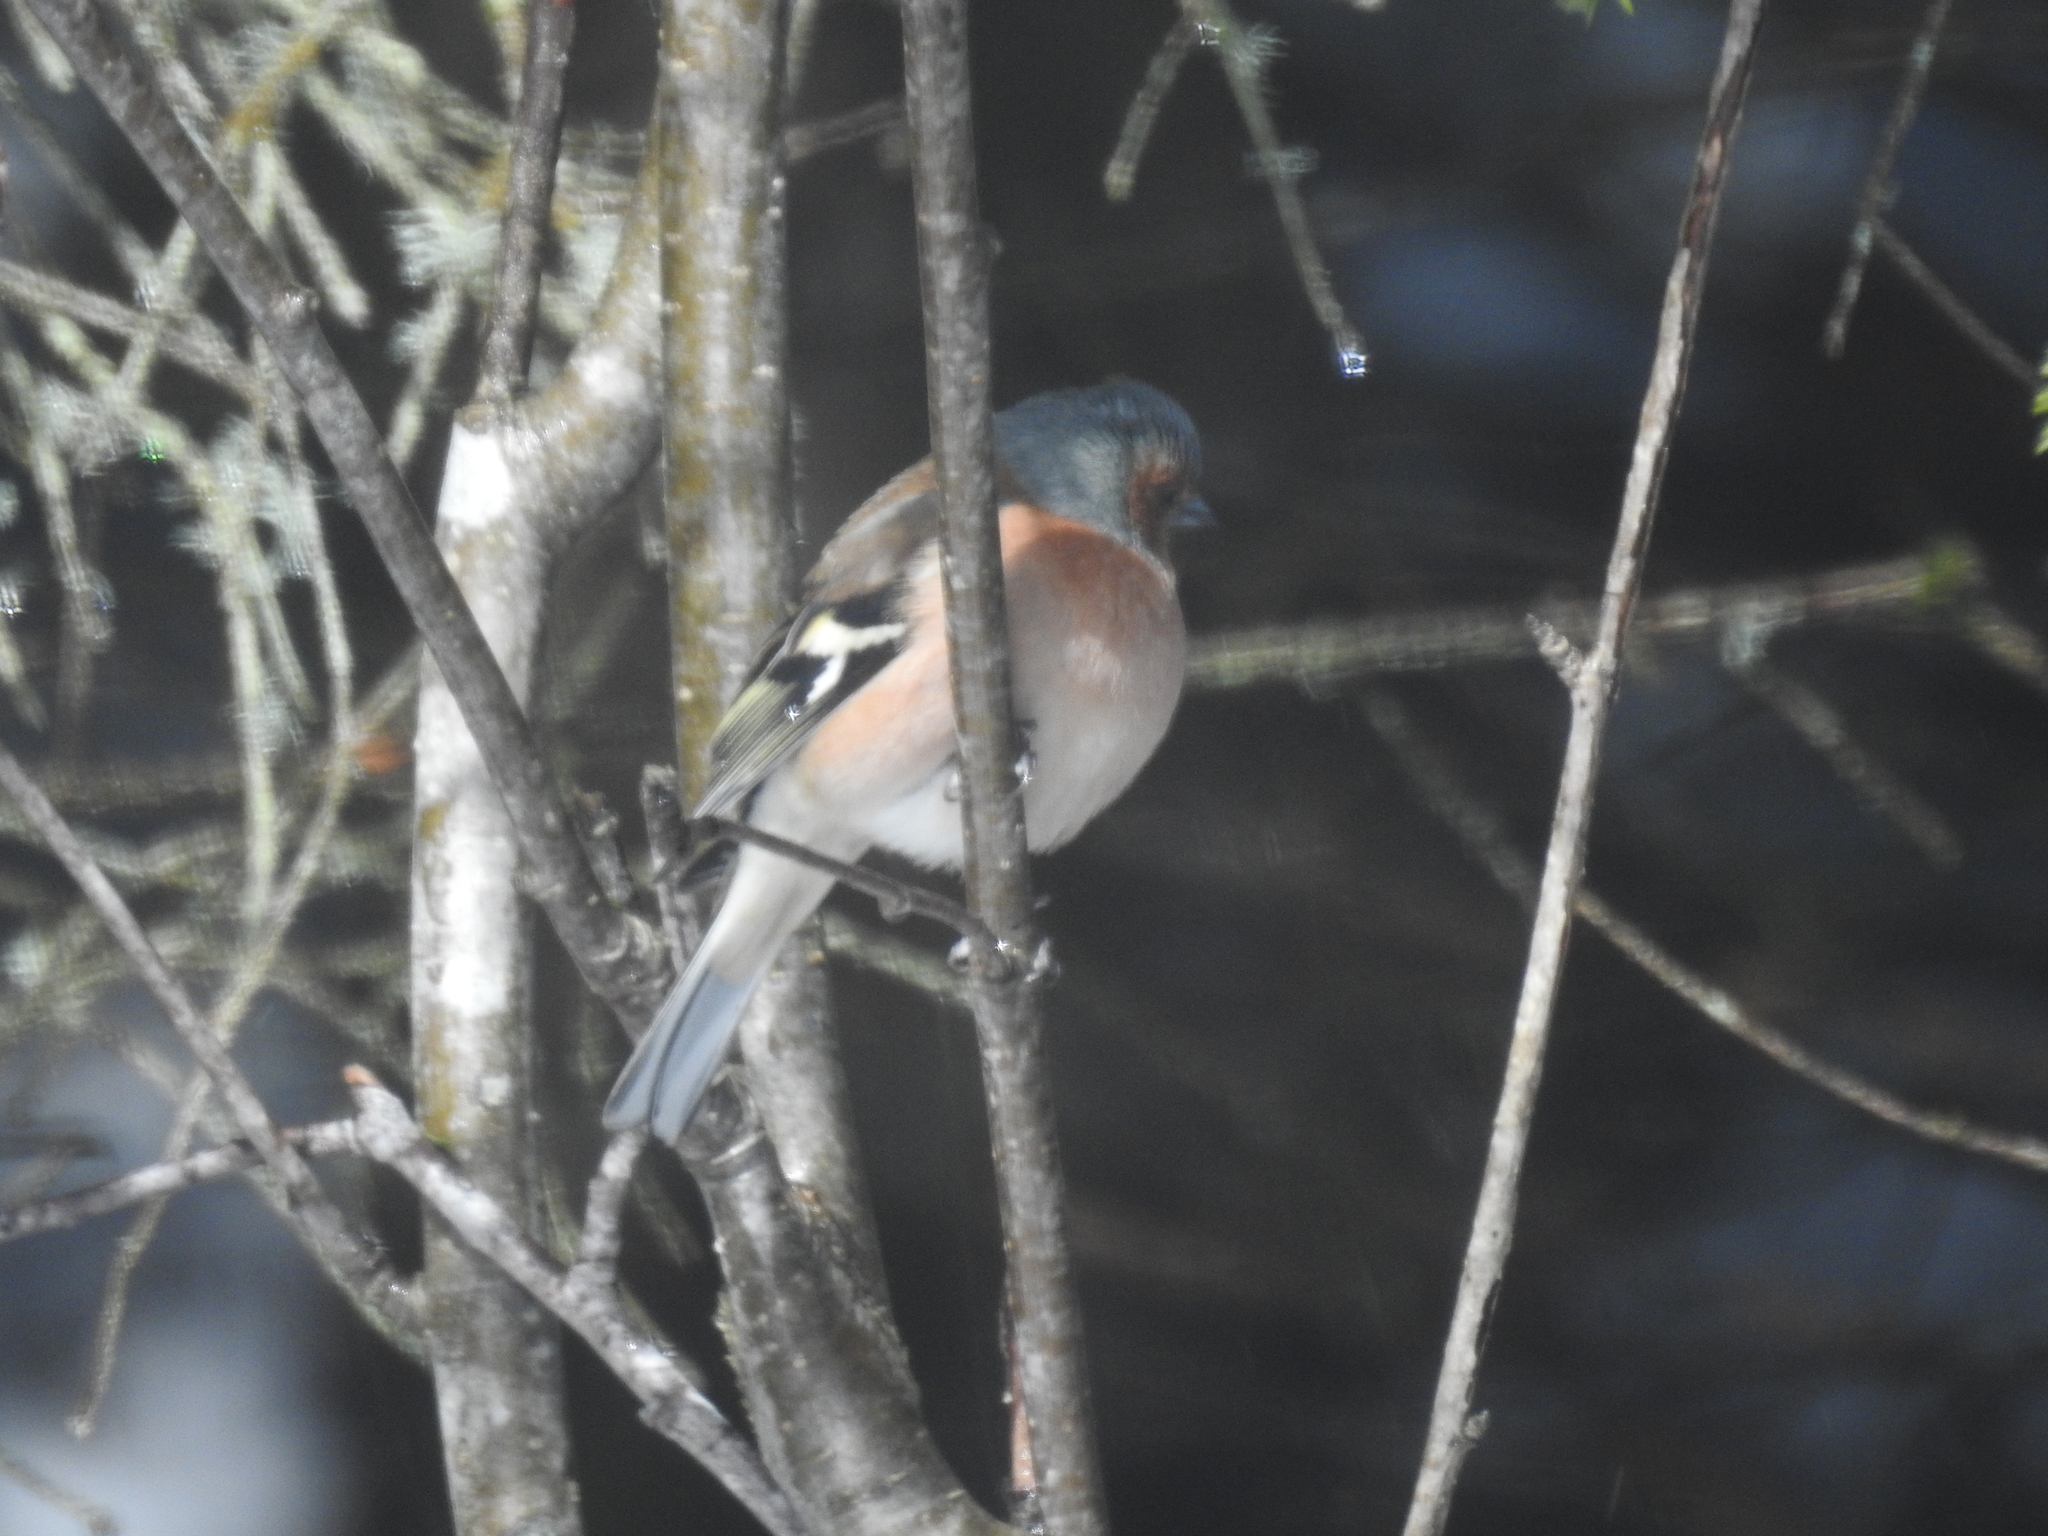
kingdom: Animalia
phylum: Chordata
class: Aves
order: Passeriformes
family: Fringillidae
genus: Fringilla
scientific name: Fringilla coelebs
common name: Common chaffinch
